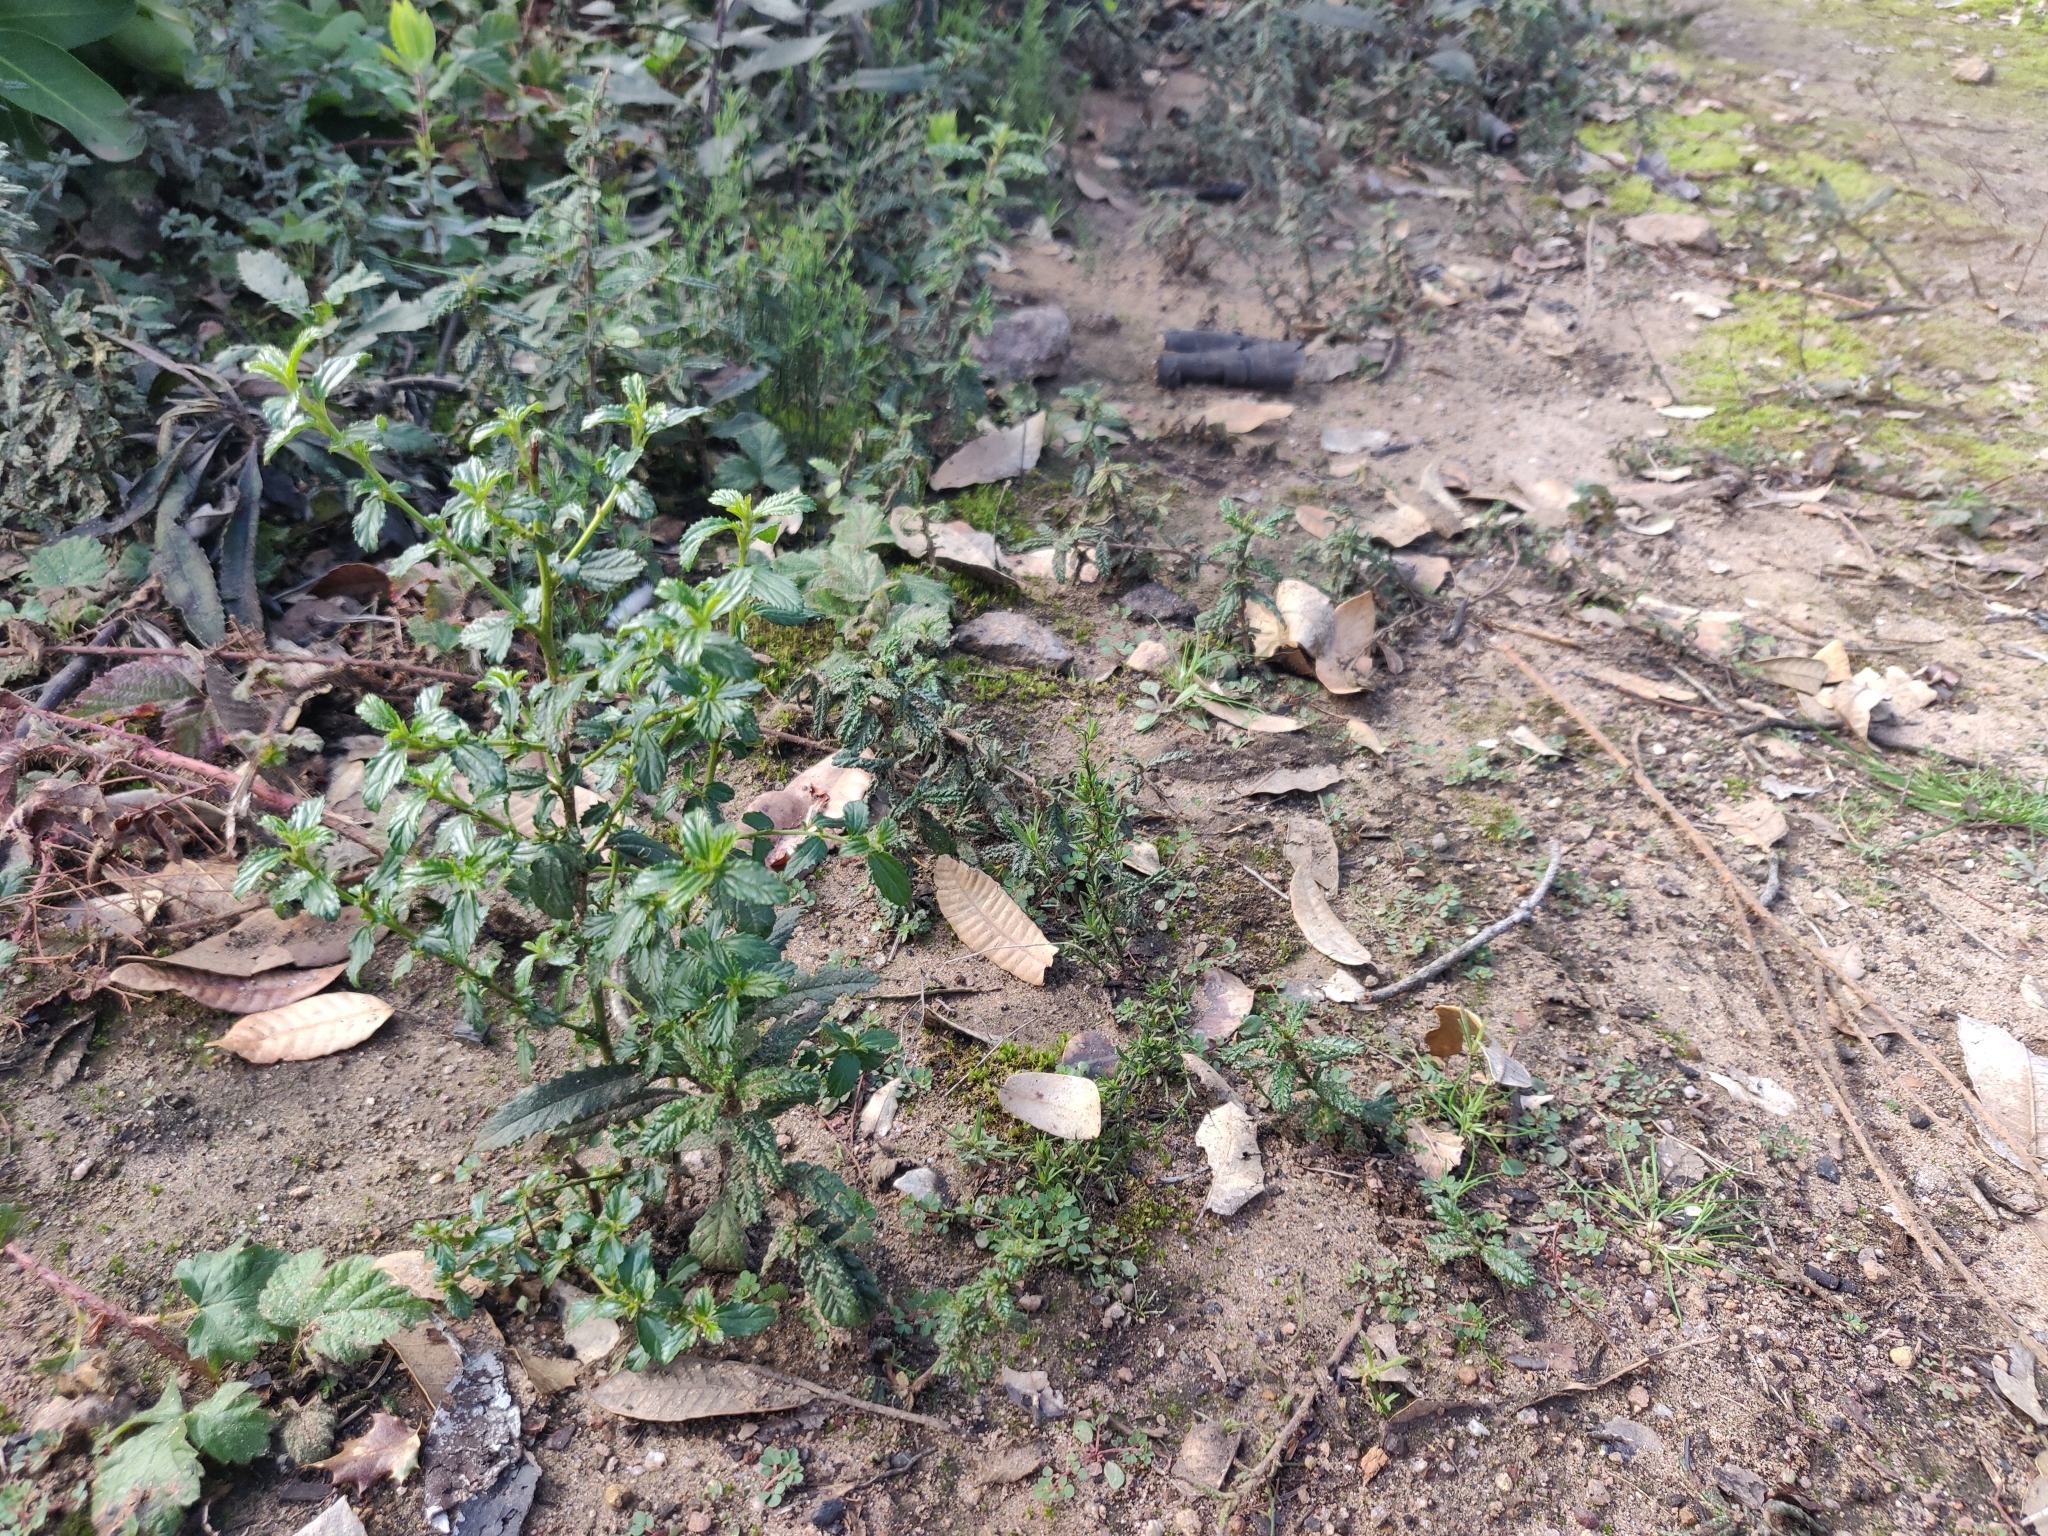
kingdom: Plantae
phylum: Tracheophyta
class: Magnoliopsida
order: Rosales
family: Rhamnaceae
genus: Ceanothus
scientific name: Ceanothus thyrsiflorus
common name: California-lilac
